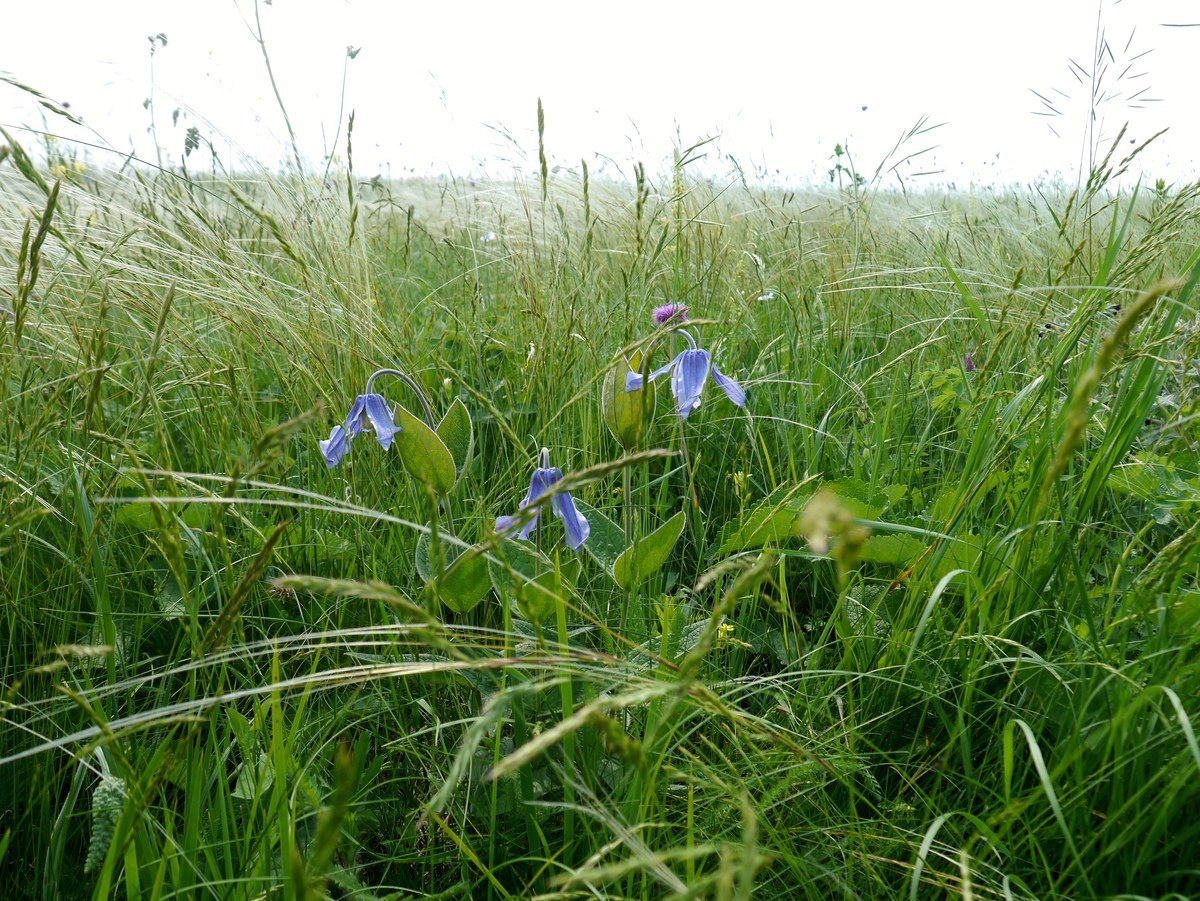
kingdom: Plantae
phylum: Tracheophyta
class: Magnoliopsida
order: Ranunculales
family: Ranunculaceae
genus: Clematis
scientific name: Clematis integrifolia
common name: Solitary clematis
